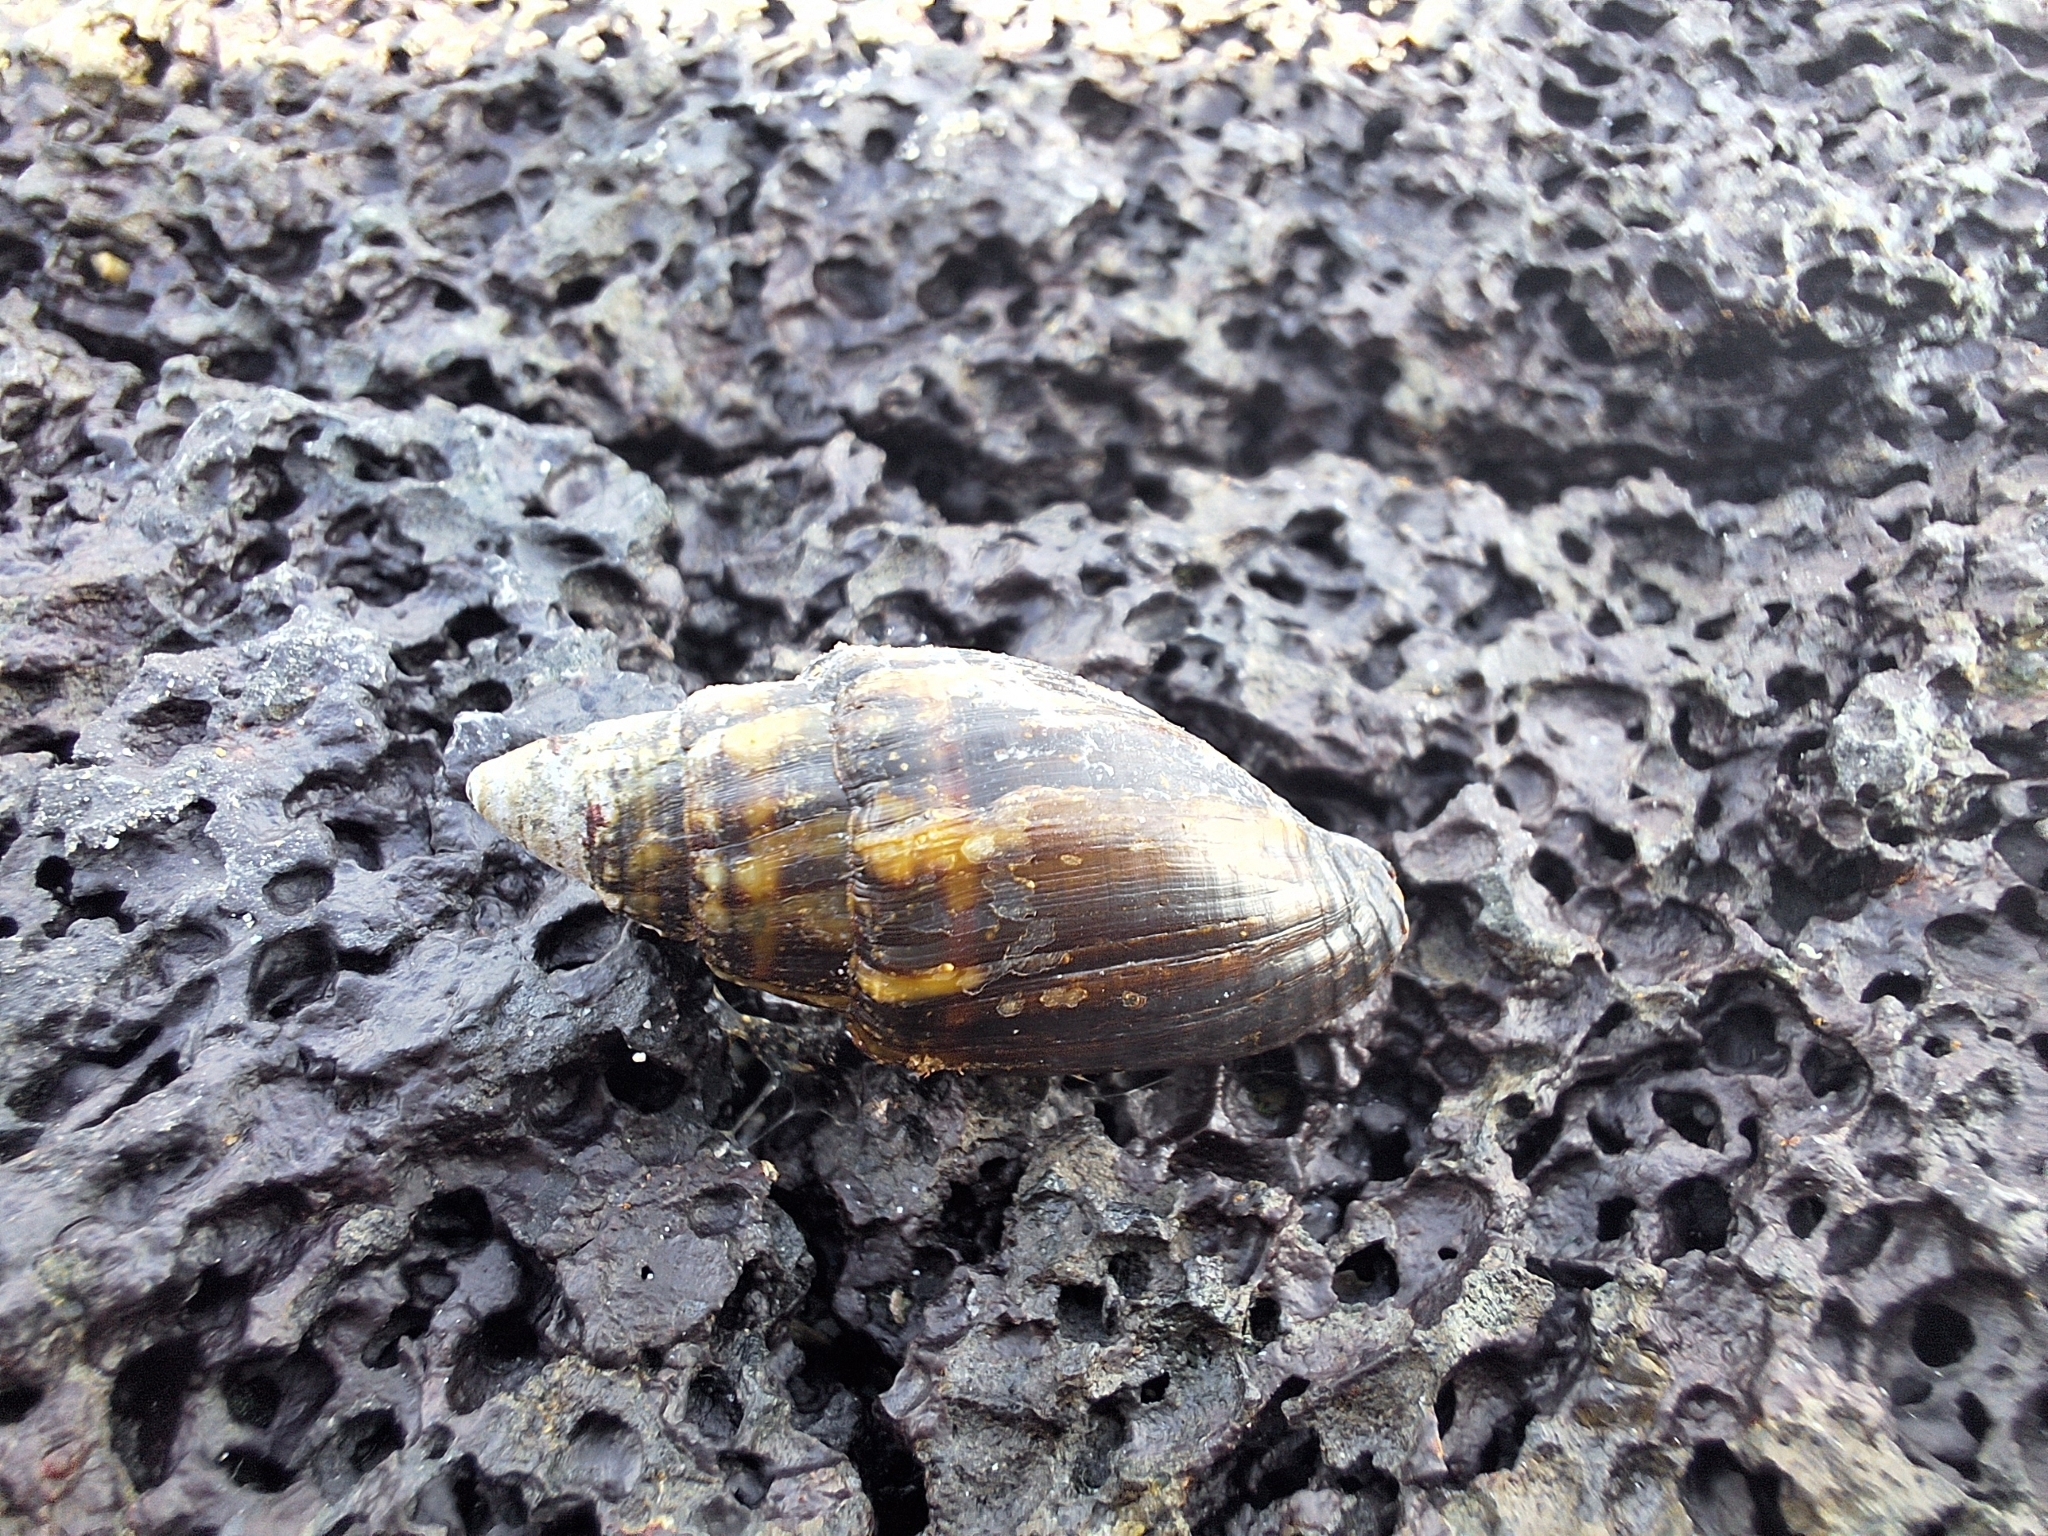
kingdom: Animalia
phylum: Mollusca
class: Gastropoda
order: Neogastropoda
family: Mitridae
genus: Strigatella
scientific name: Strigatella tristis
